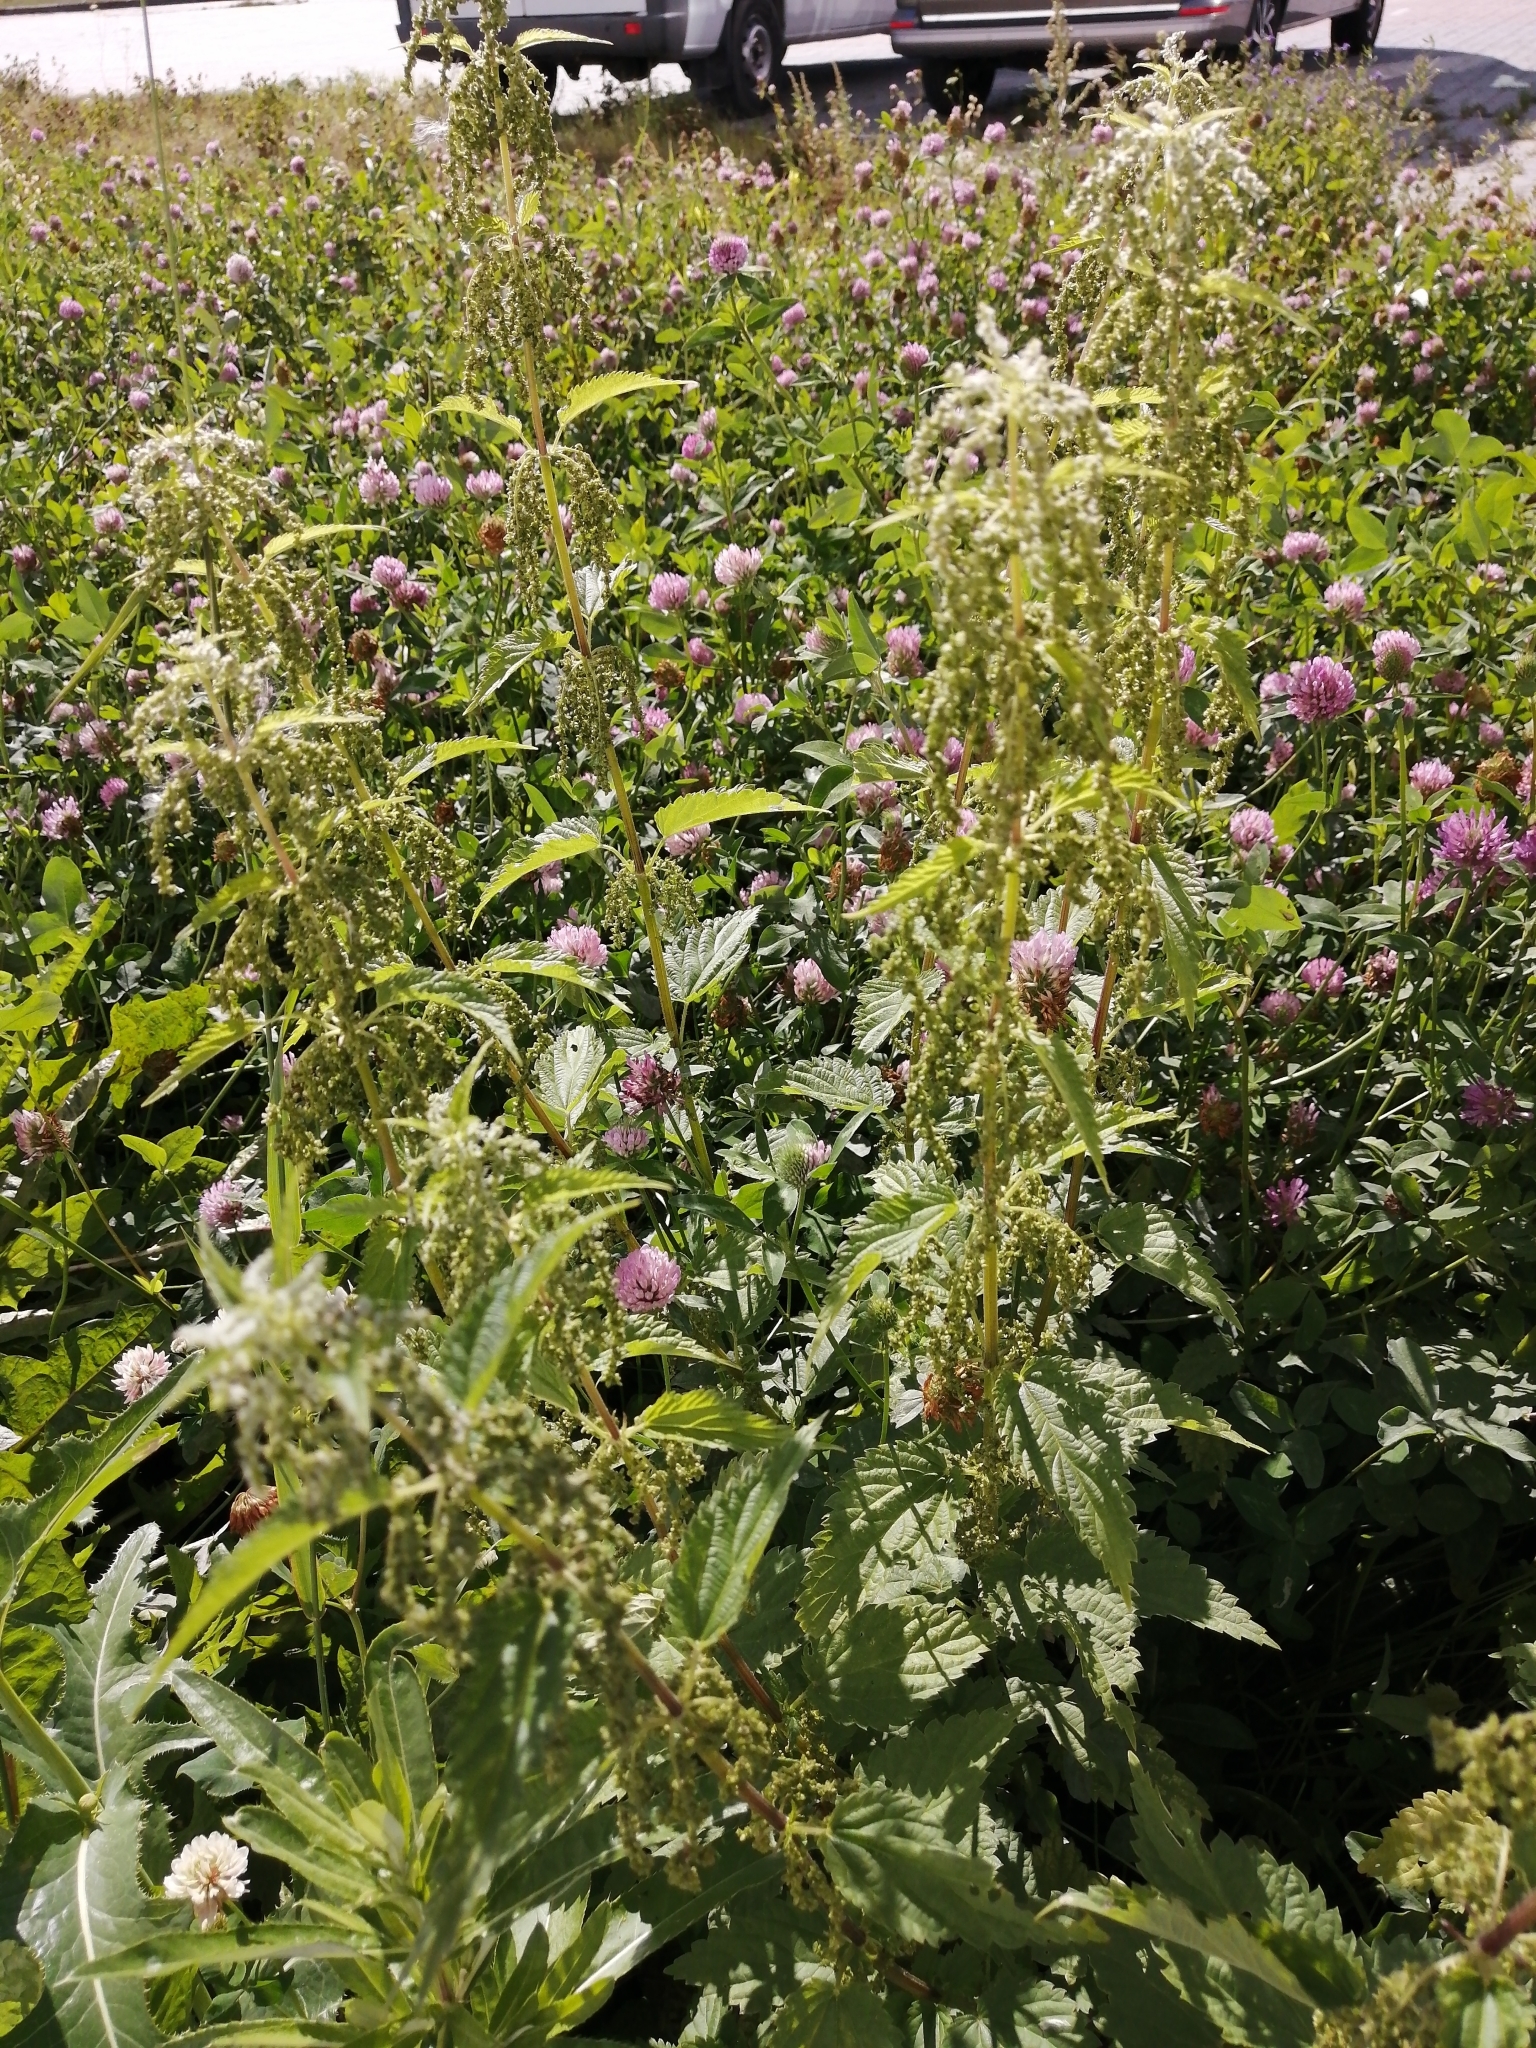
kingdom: Plantae
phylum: Tracheophyta
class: Magnoliopsida
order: Rosales
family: Urticaceae
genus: Urtica
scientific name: Urtica dioica
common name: Common nettle
